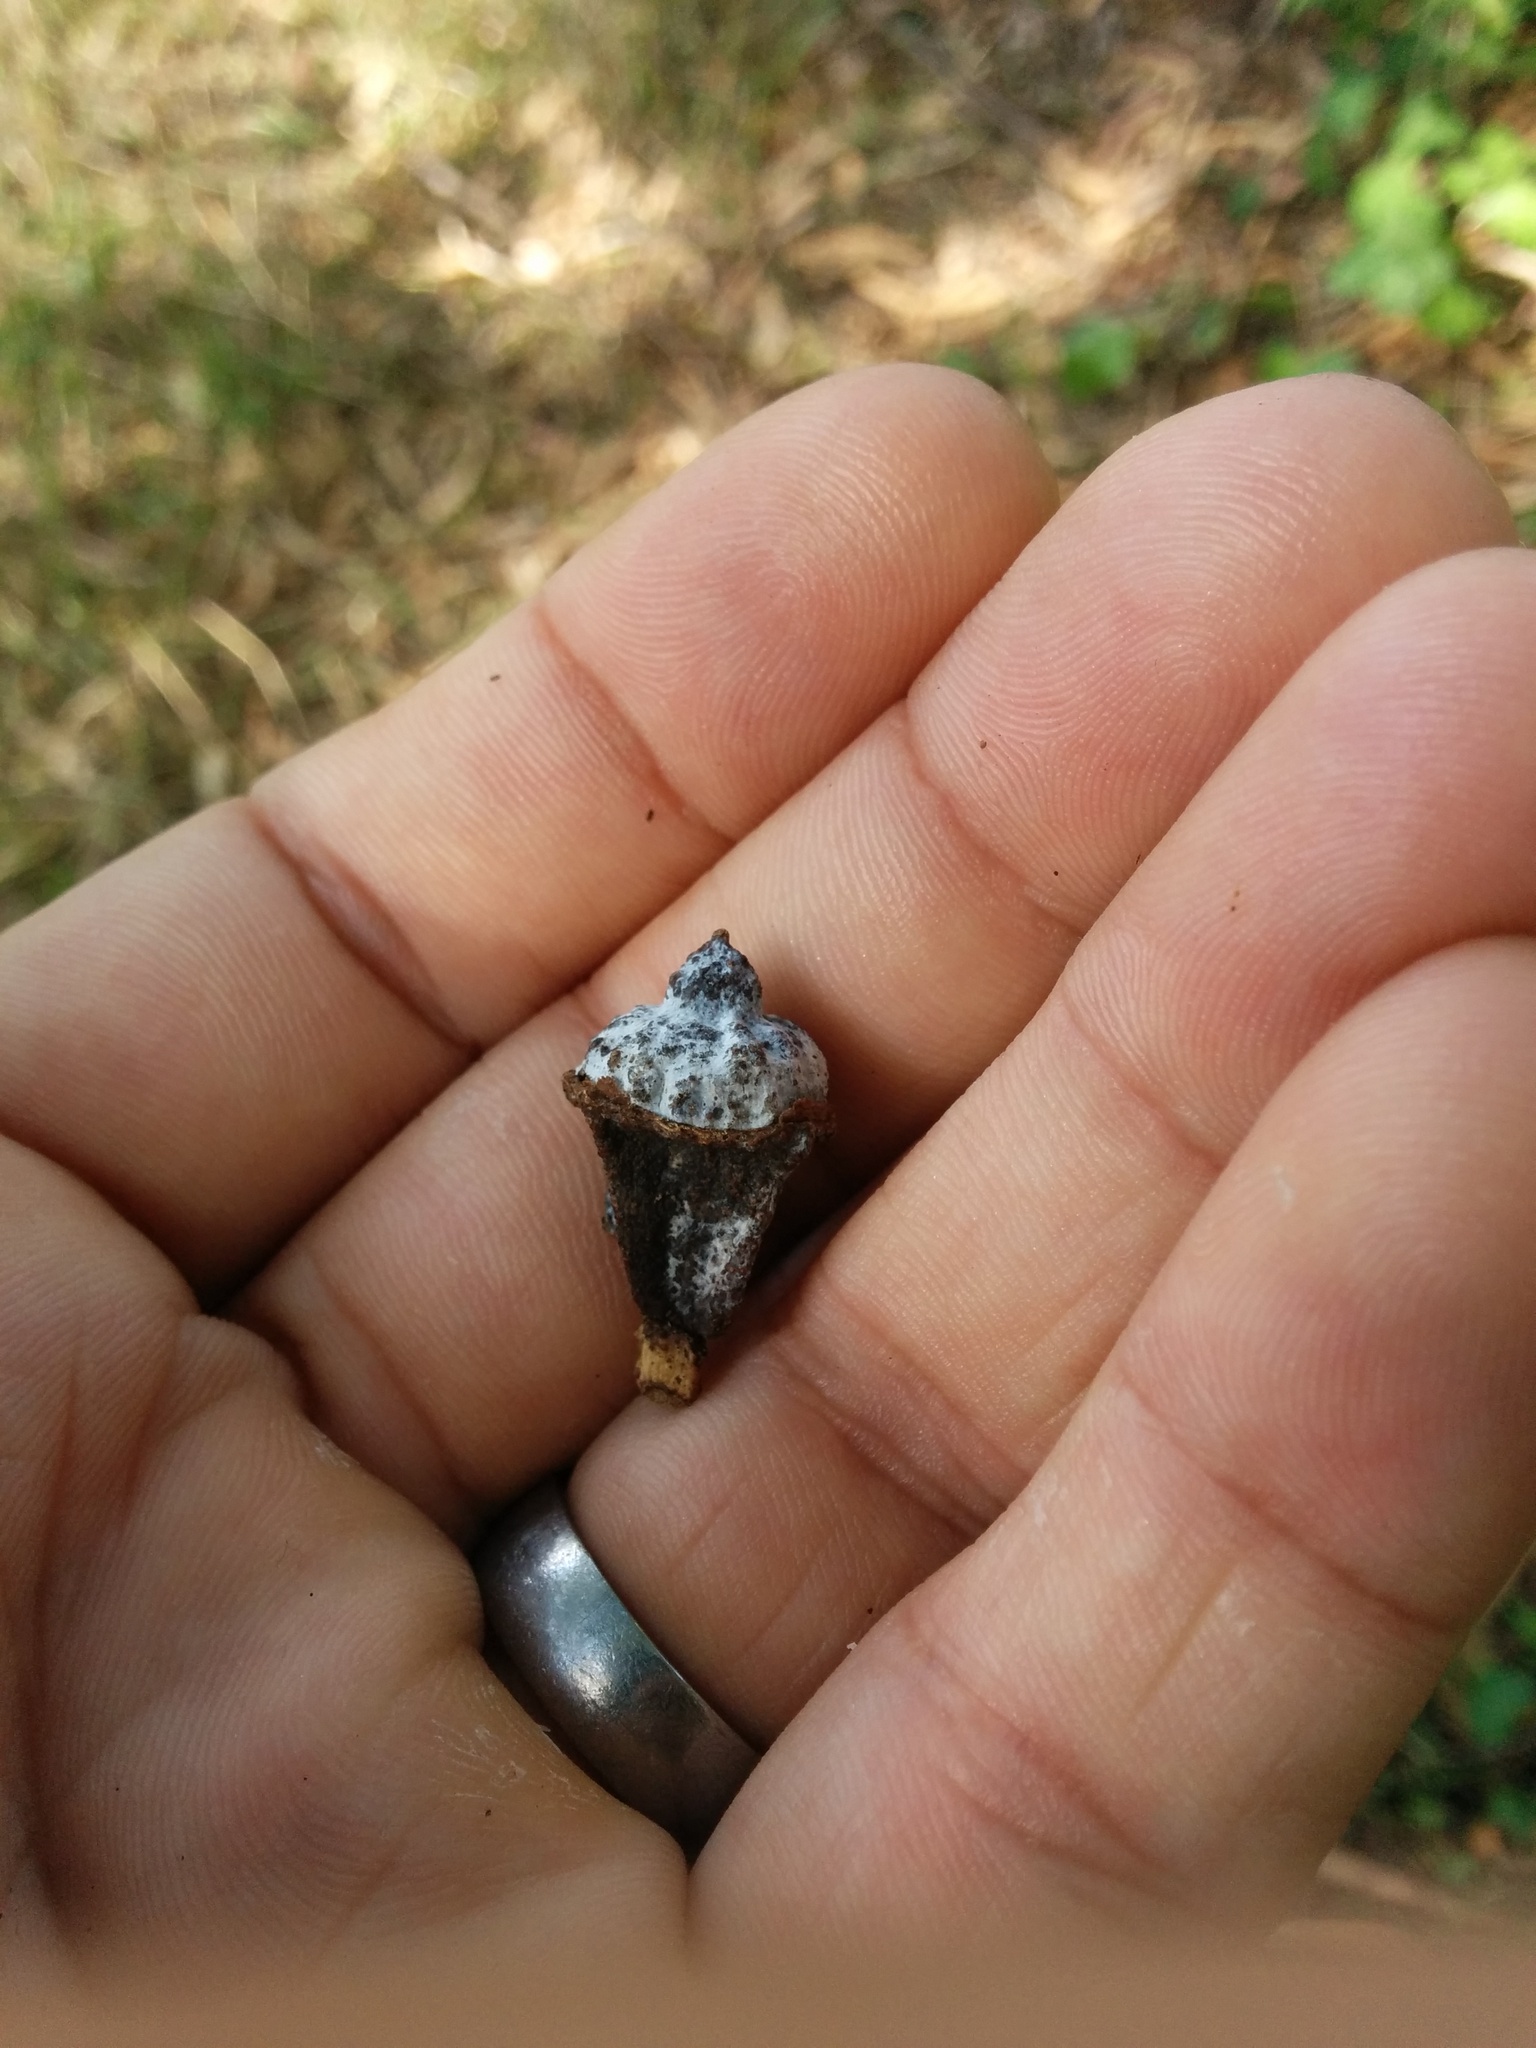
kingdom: Plantae
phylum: Tracheophyta
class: Magnoliopsida
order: Myrtales
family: Myrtaceae
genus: Eucalyptus
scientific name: Eucalyptus globulus
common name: Southern blue-gum
